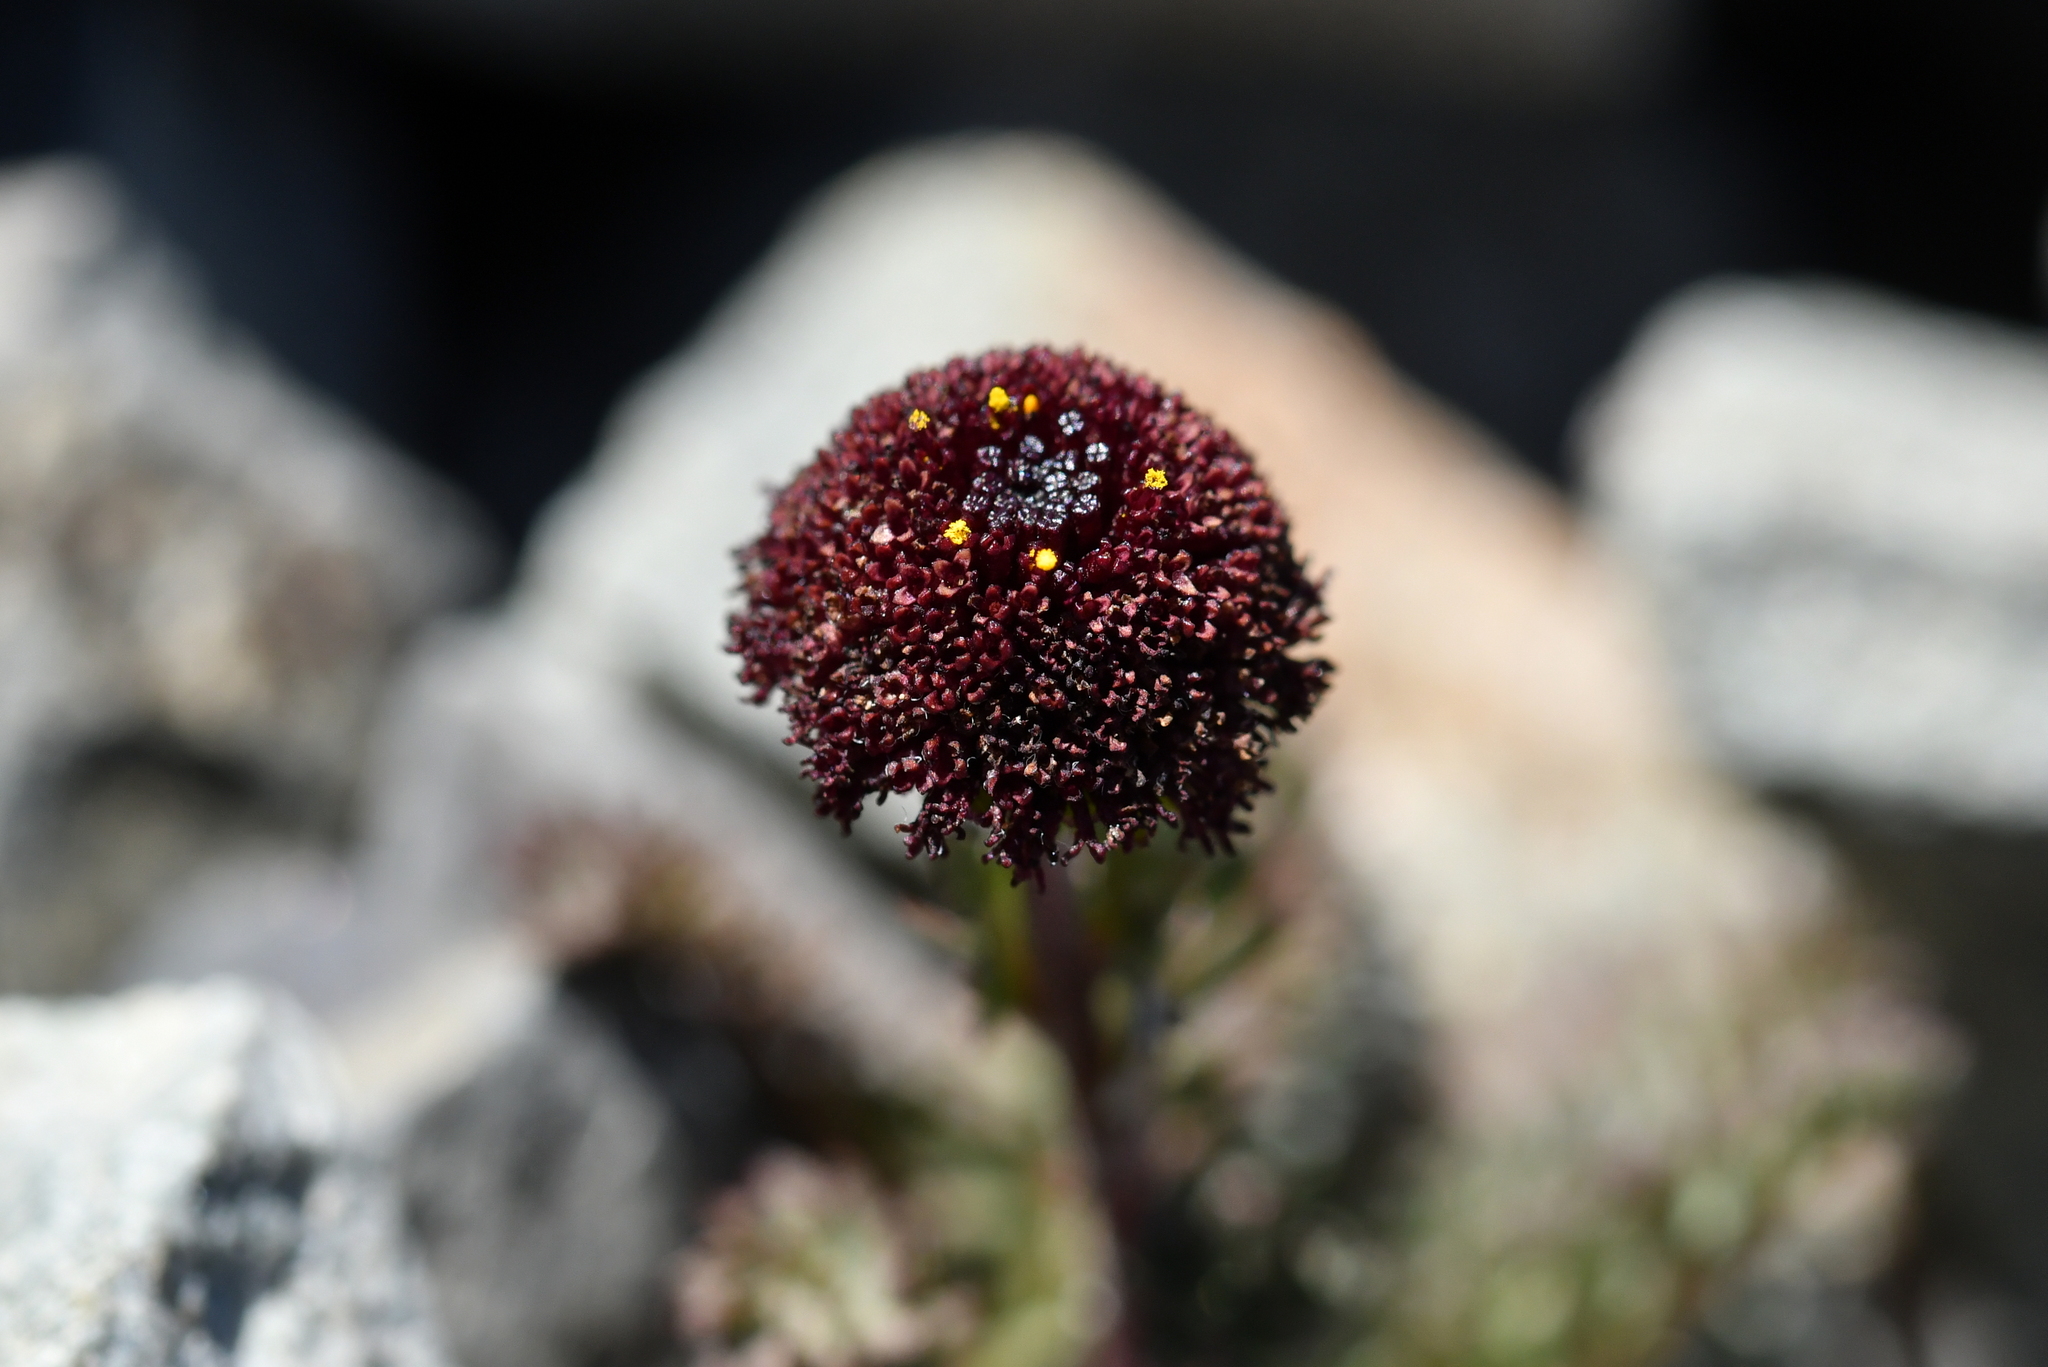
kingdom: Plantae
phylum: Tracheophyta
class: Magnoliopsida
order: Asterales
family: Asteraceae
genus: Leptinella
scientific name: Leptinella atrata
